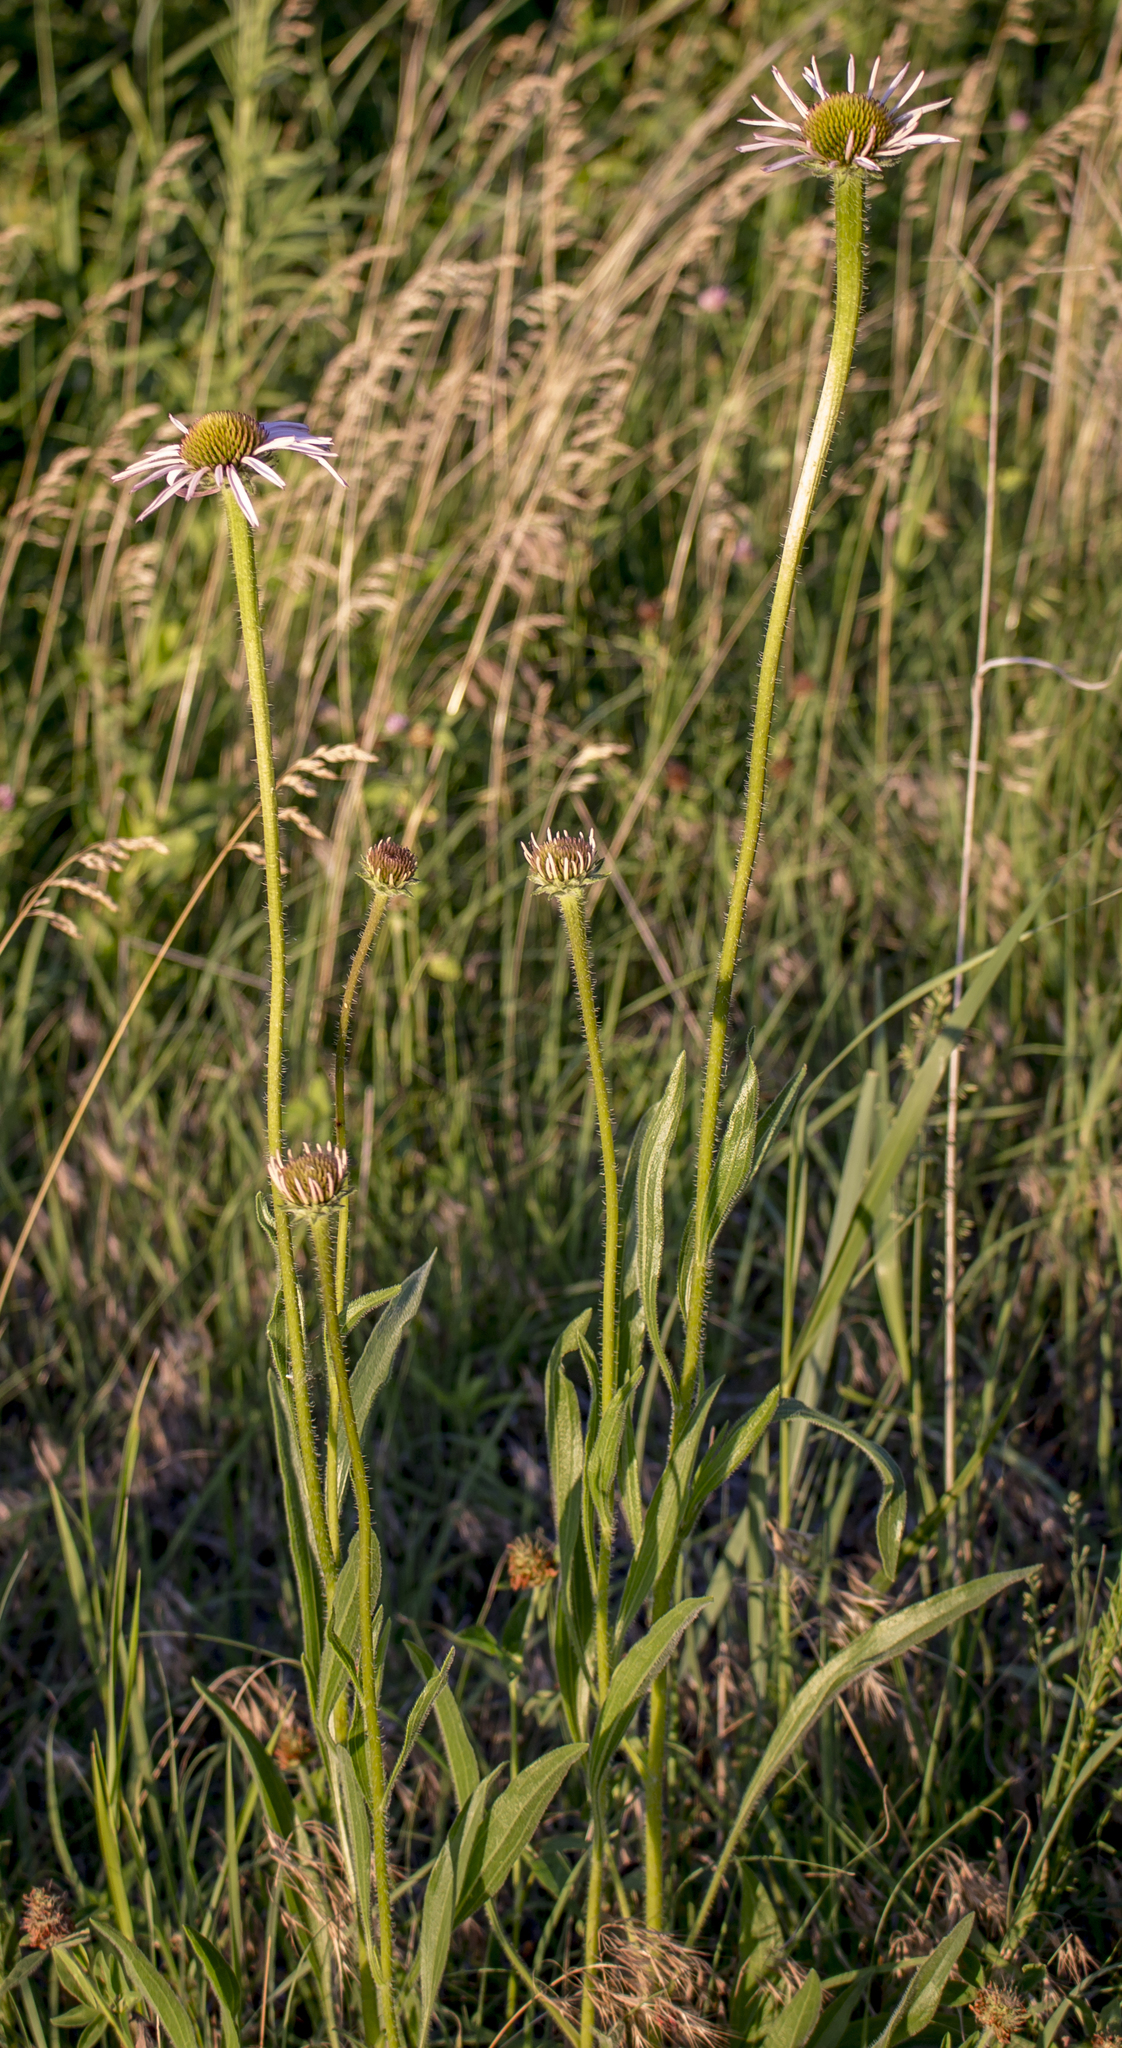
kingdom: Plantae
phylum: Tracheophyta
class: Magnoliopsida
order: Asterales
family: Asteraceae
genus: Echinacea
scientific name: Echinacea pallida
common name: Pale echinacea
